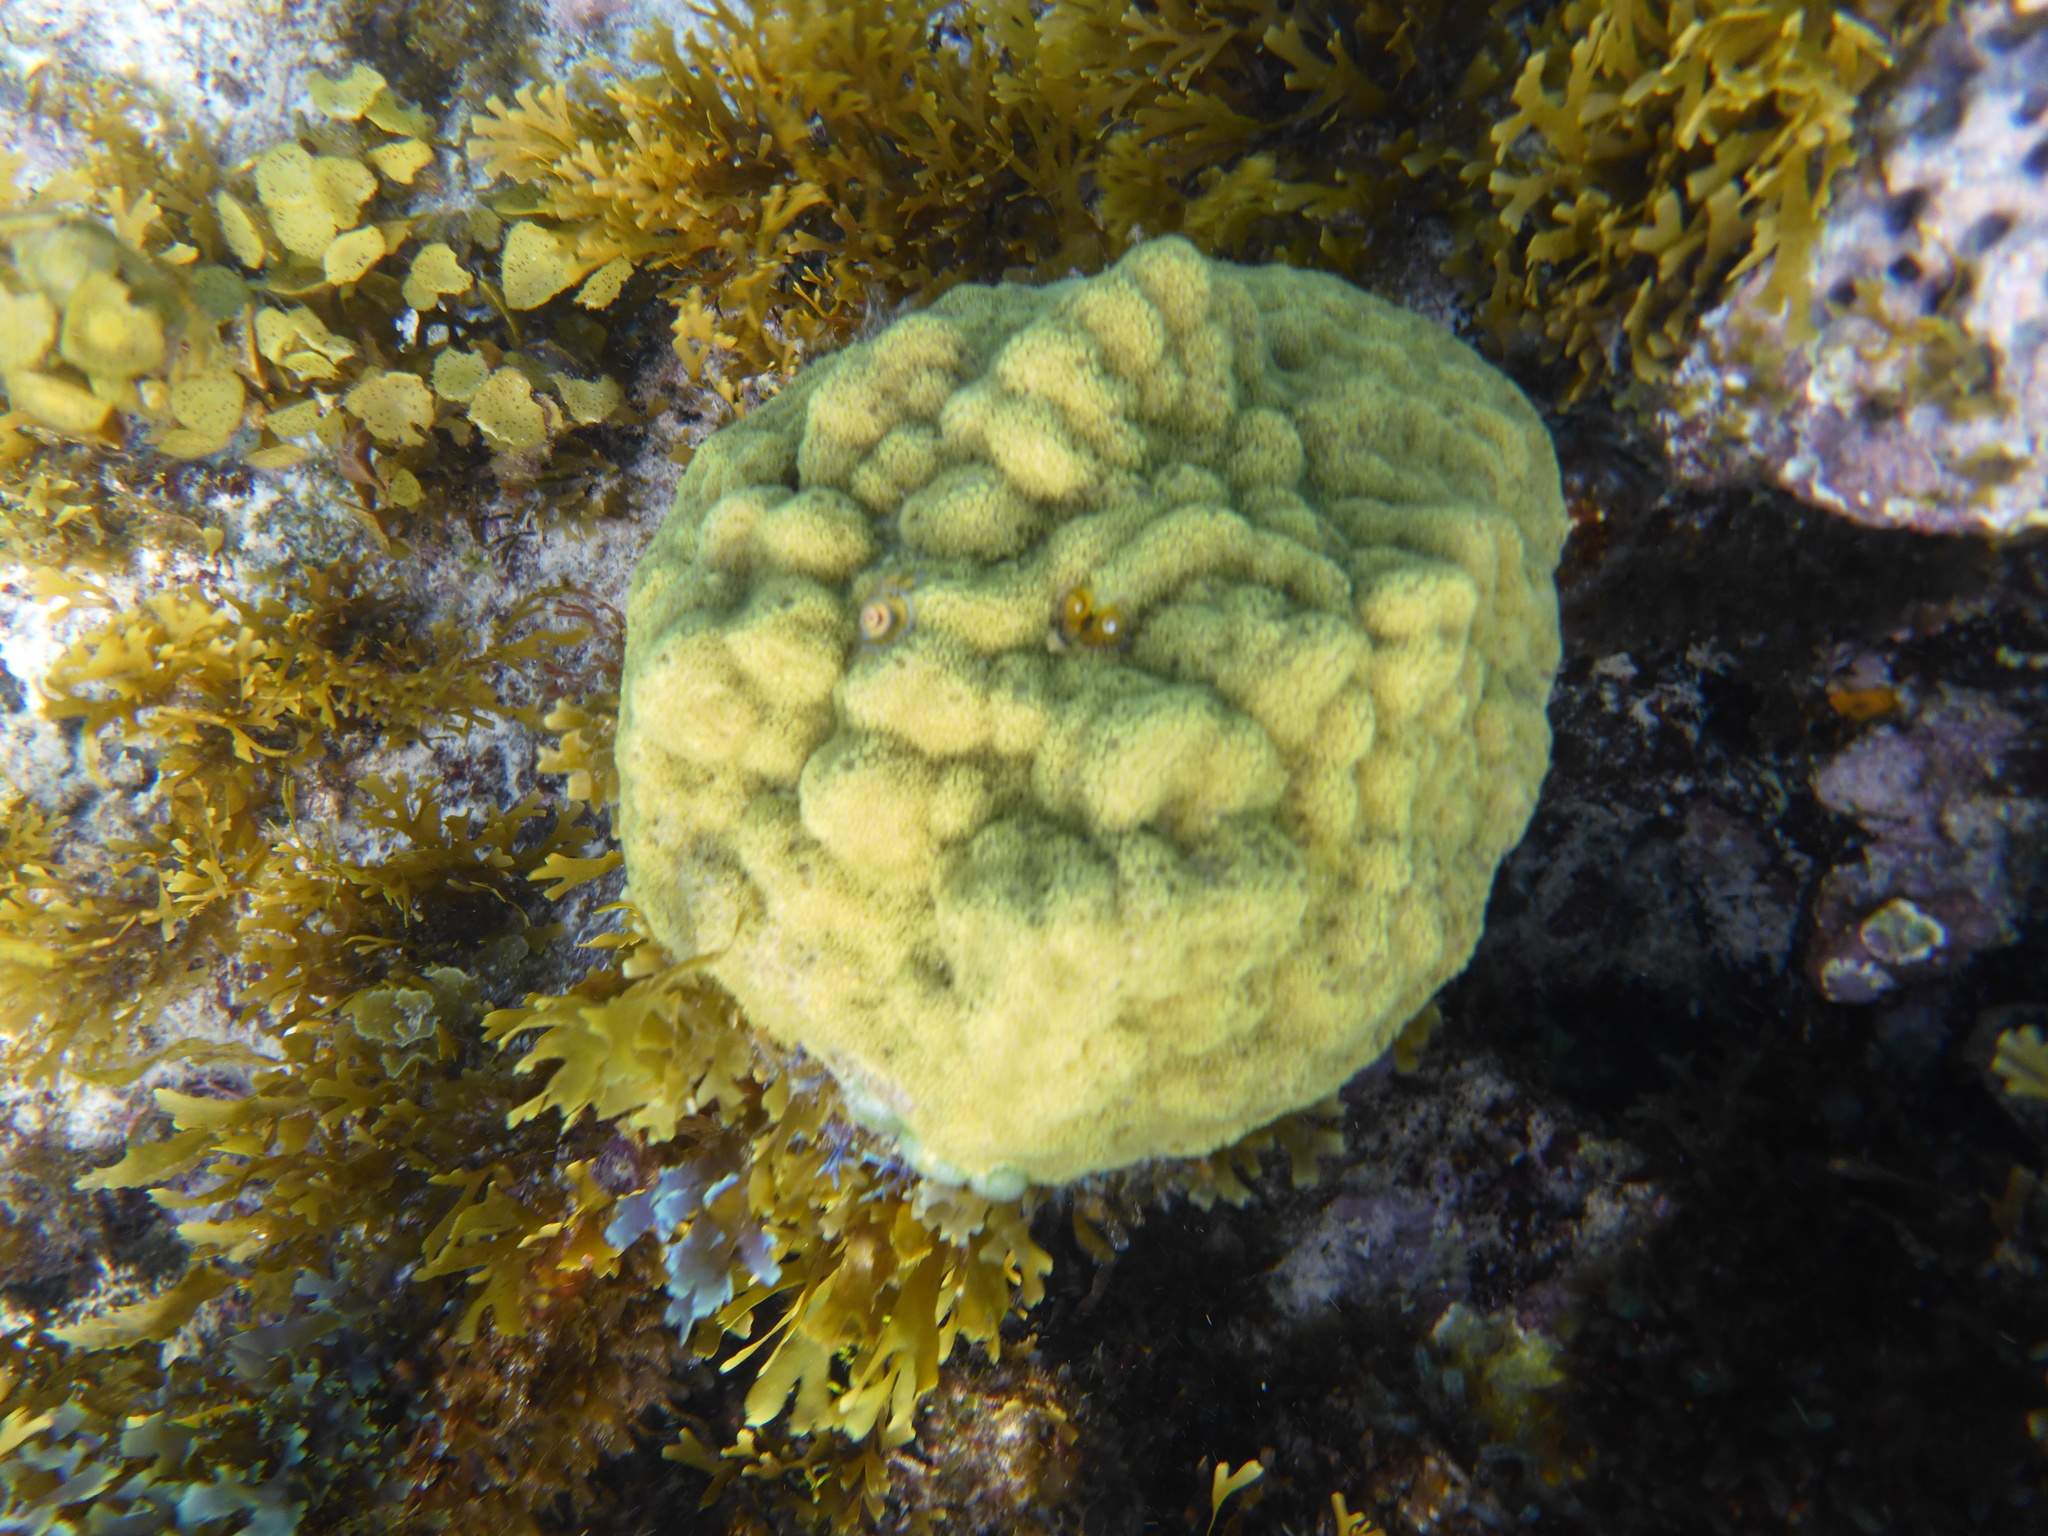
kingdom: Animalia
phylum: Cnidaria
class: Anthozoa
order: Scleractinia
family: Poritidae
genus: Porites
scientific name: Porites astreoides
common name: Mustard hill coral
